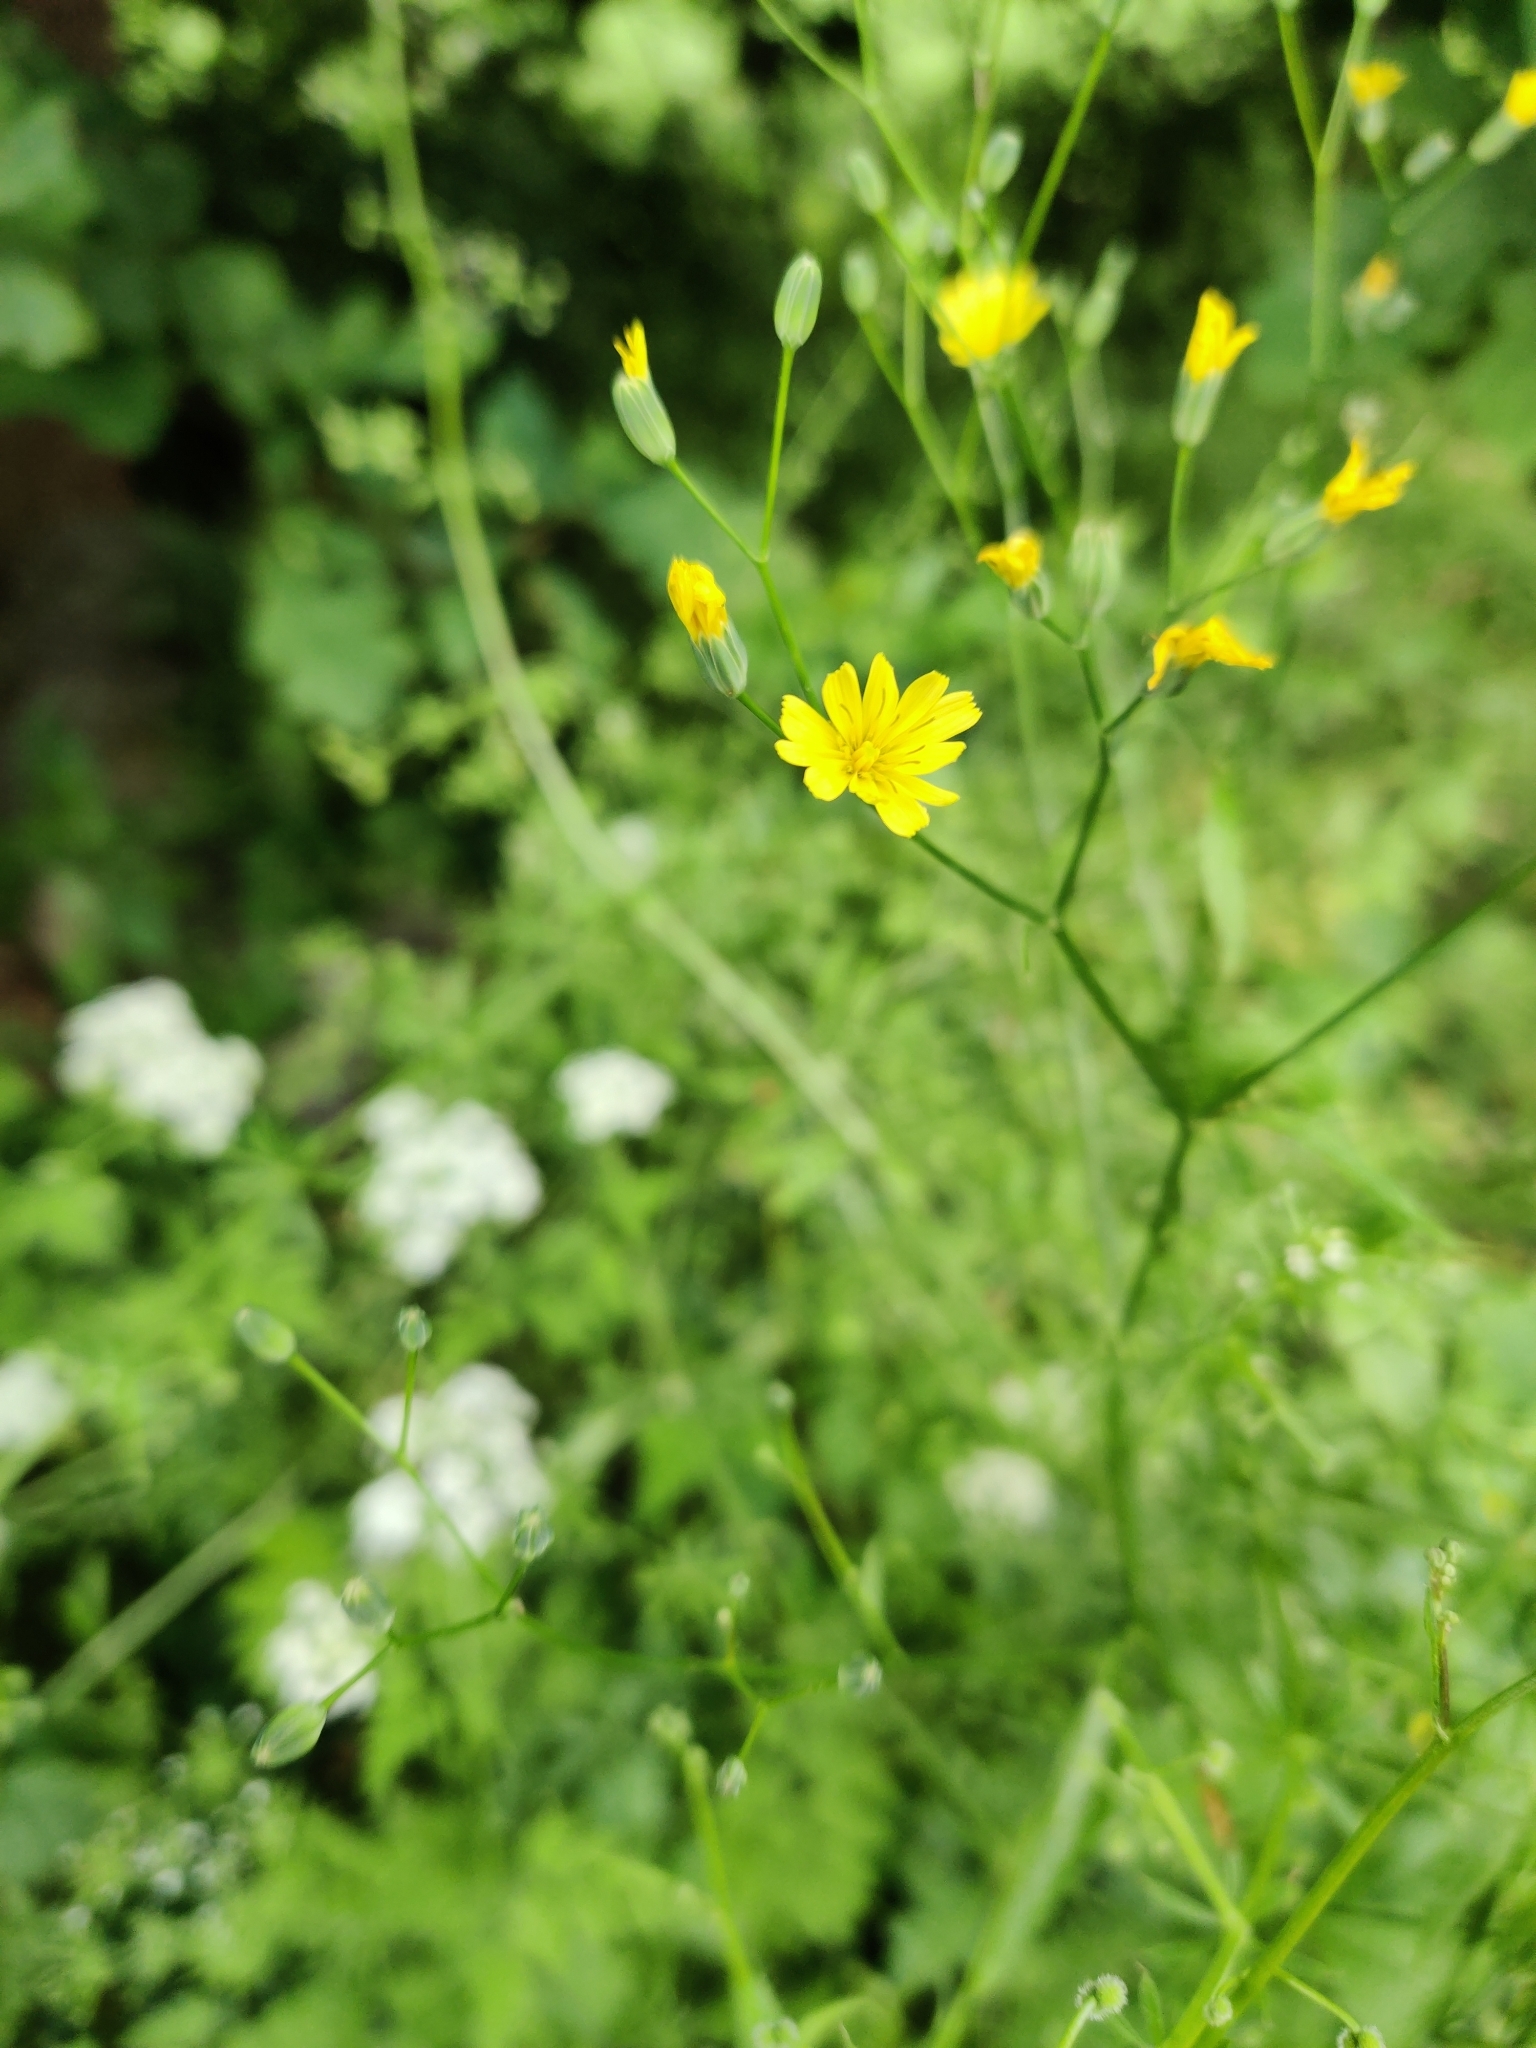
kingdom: Plantae
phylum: Tracheophyta
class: Magnoliopsida
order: Asterales
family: Asteraceae
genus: Lapsana
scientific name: Lapsana communis
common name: Nipplewort
